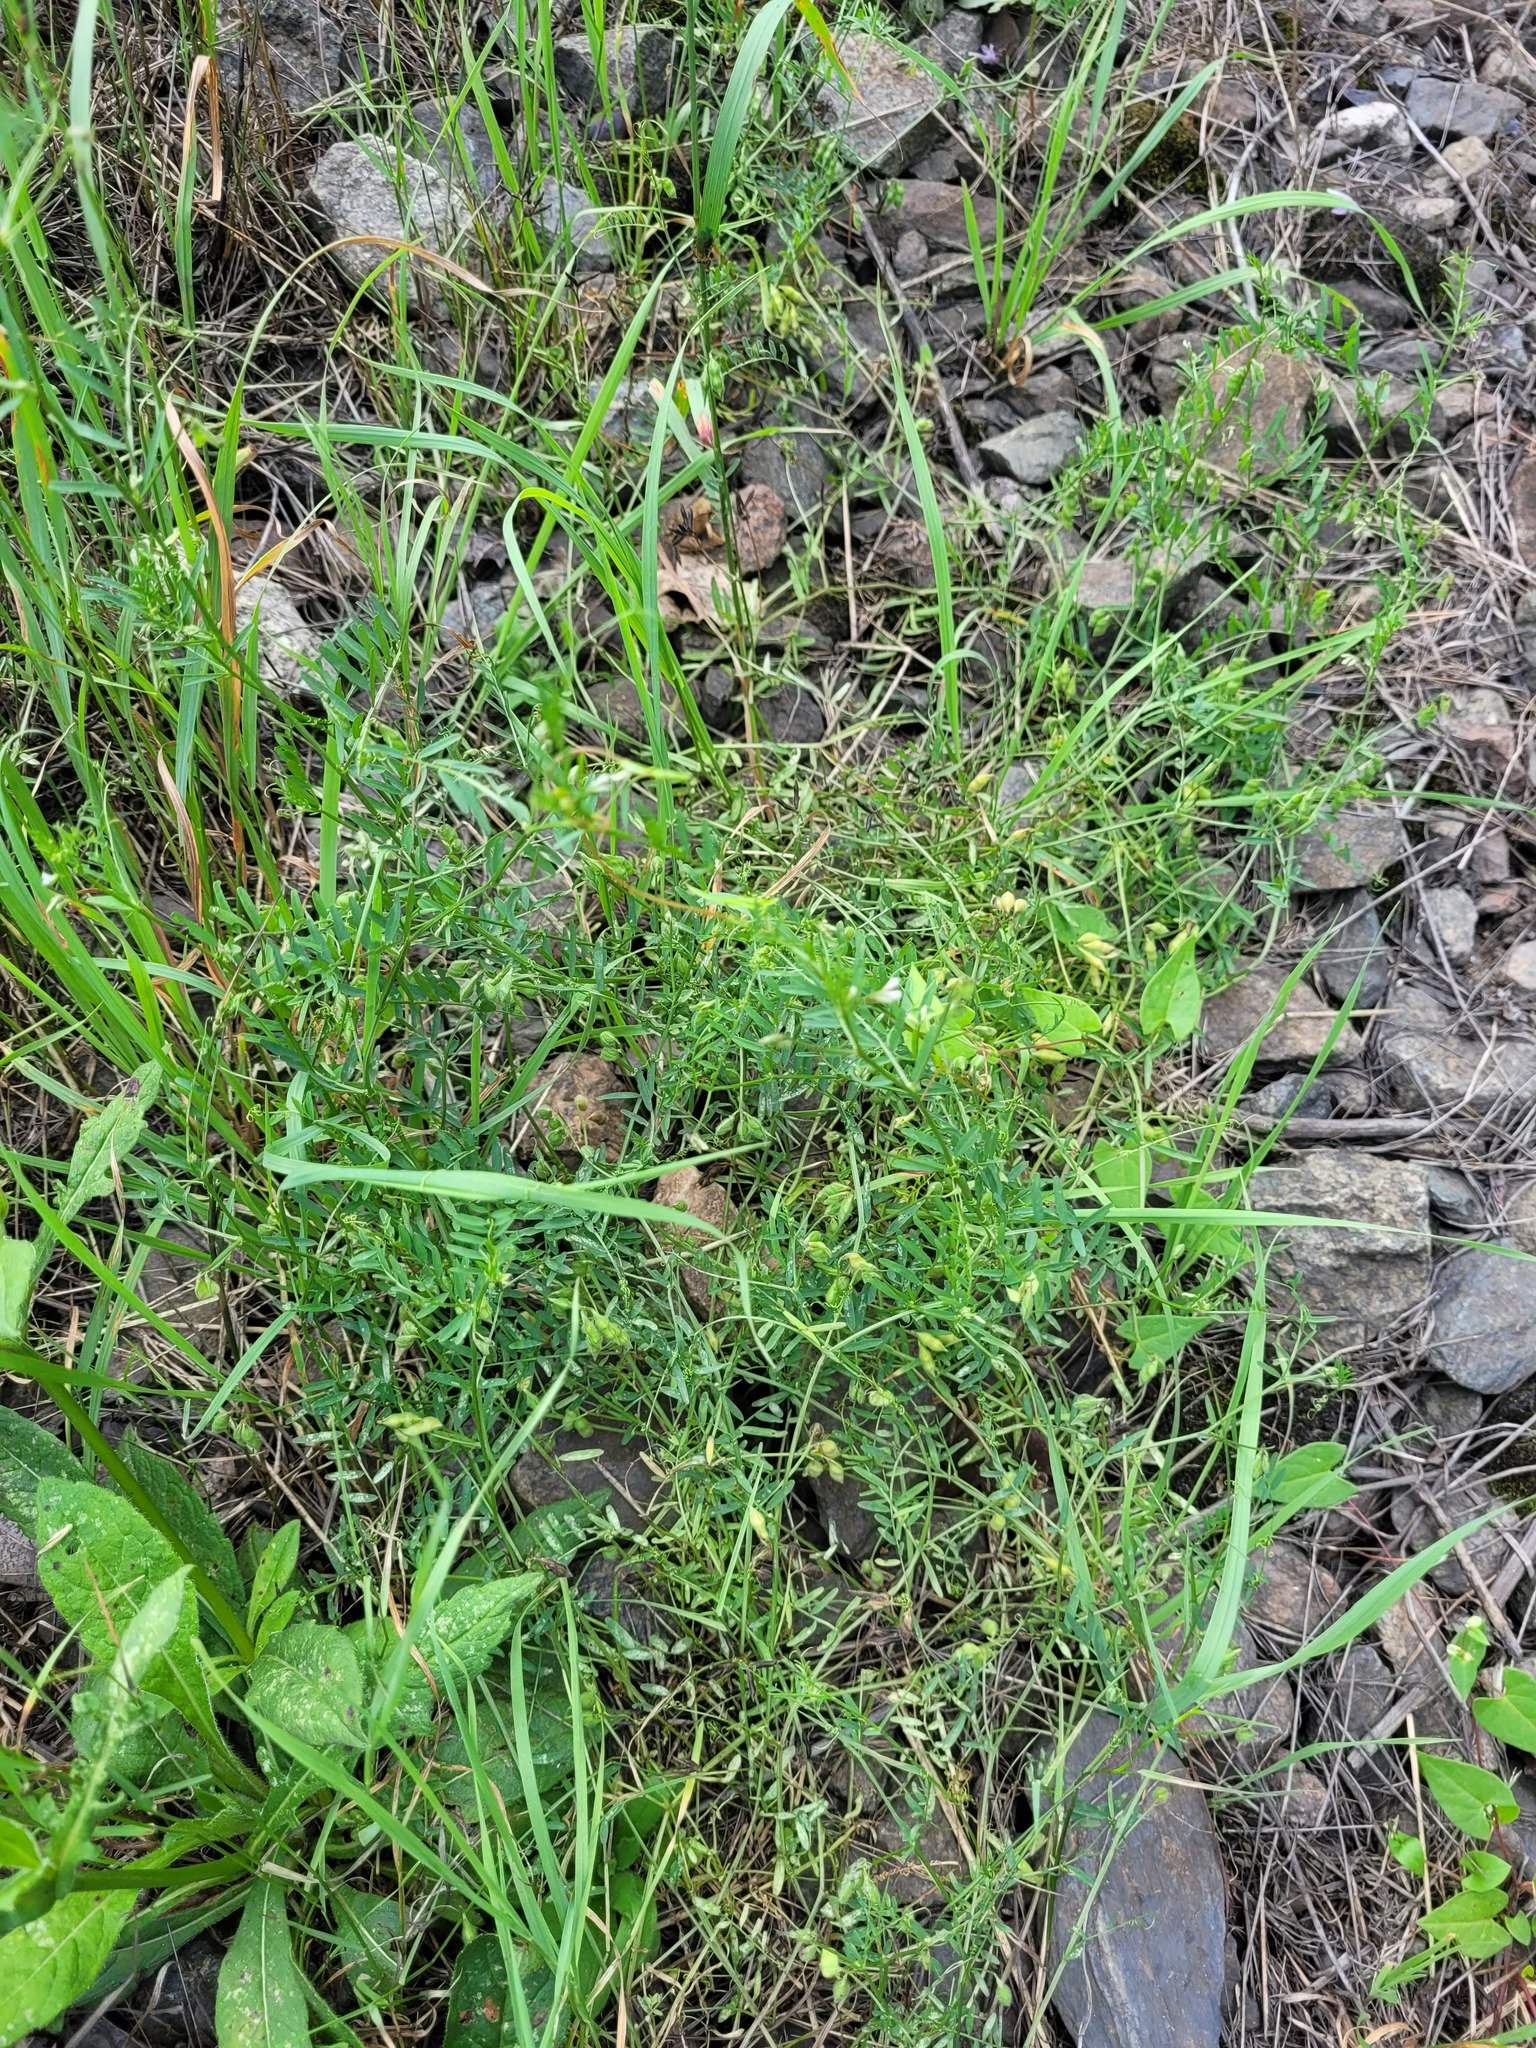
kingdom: Plantae
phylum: Tracheophyta
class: Magnoliopsida
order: Fabales
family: Fabaceae
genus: Vicia
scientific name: Vicia hirsuta
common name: Tiny vetch
